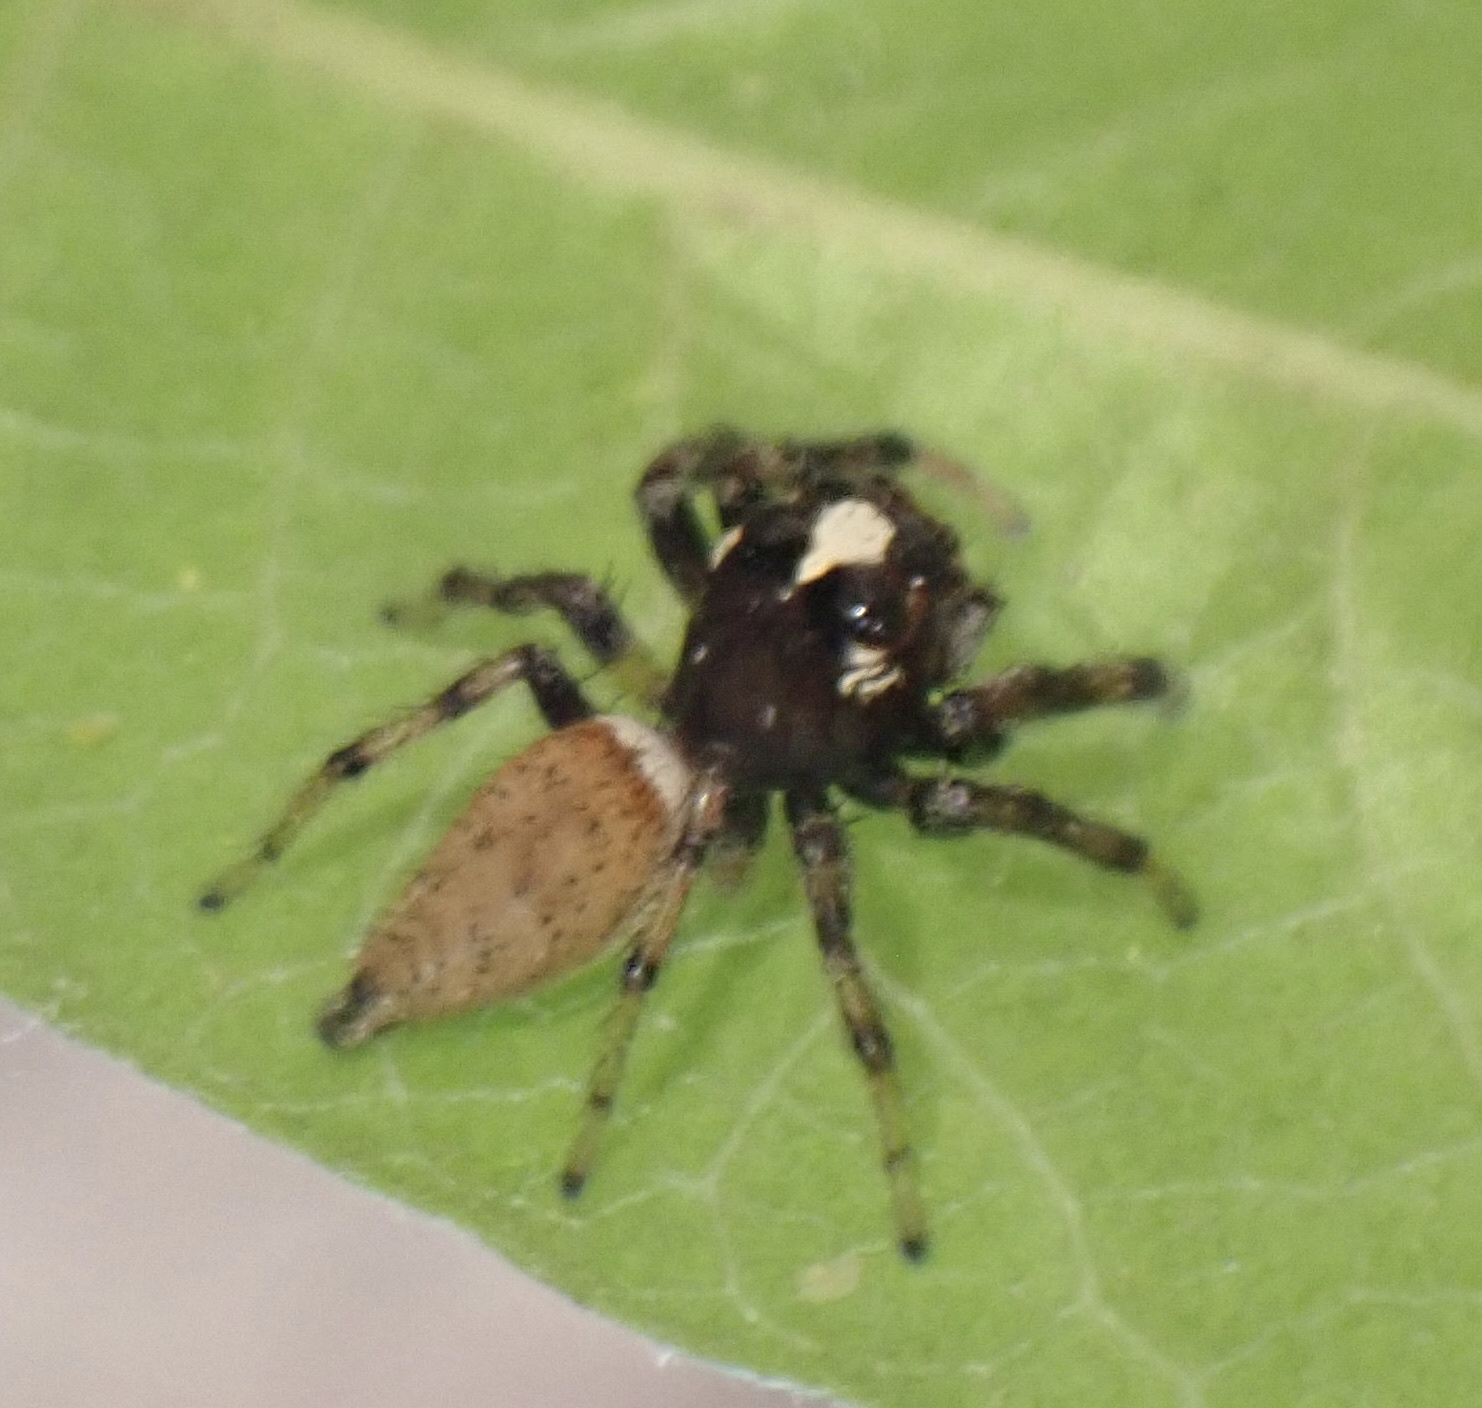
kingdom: Animalia
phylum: Arthropoda
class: Arachnida
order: Araneae
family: Salticidae
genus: Colonus
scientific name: Colonus hesperus
